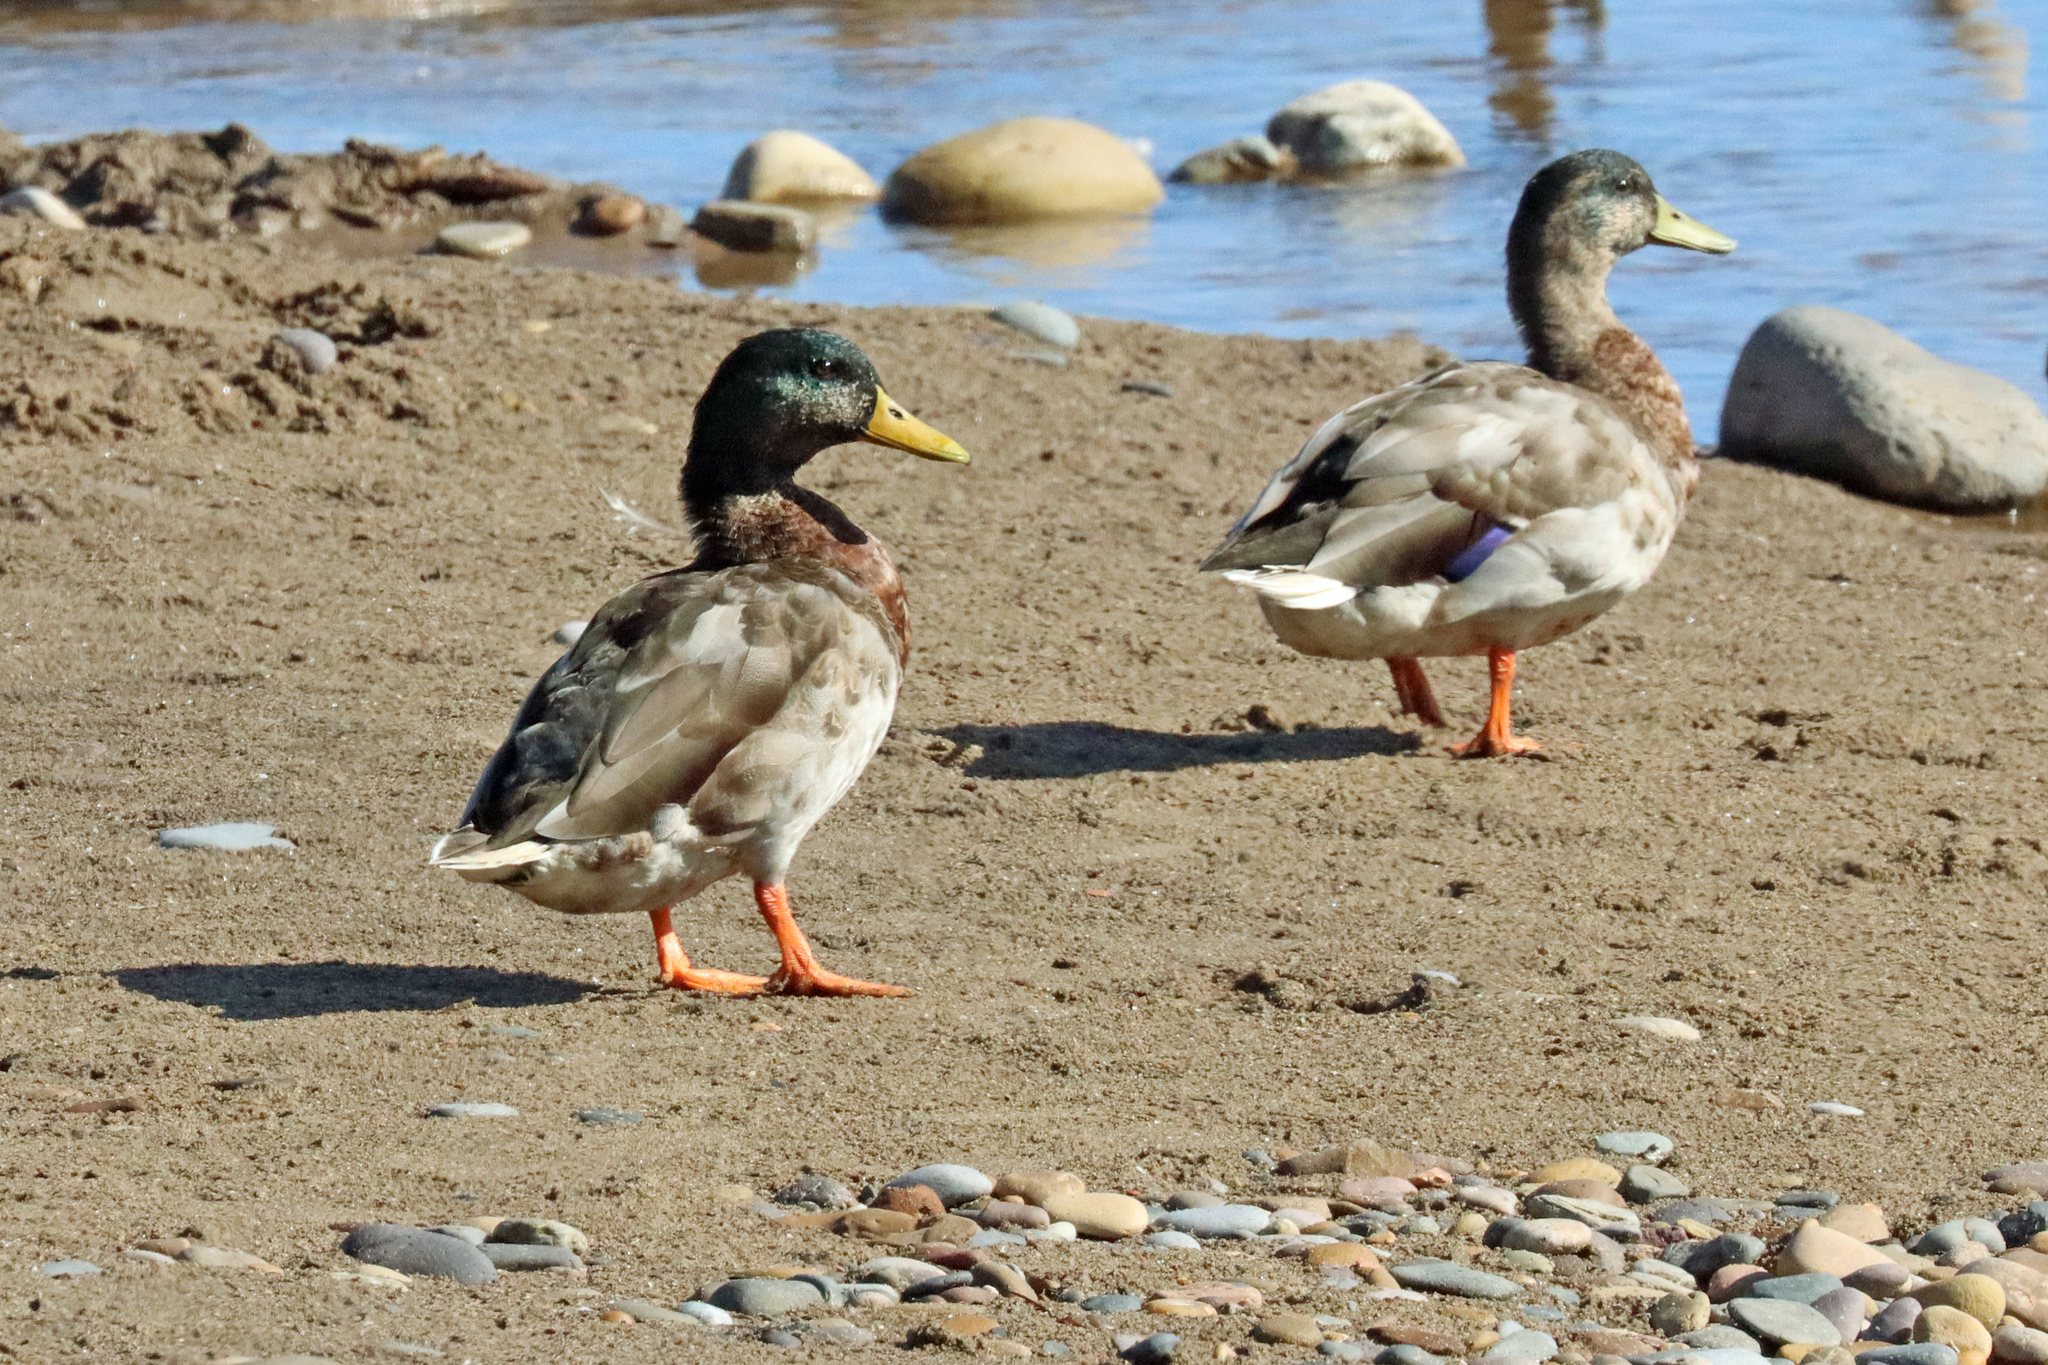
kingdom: Animalia
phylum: Chordata
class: Aves
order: Anseriformes
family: Anatidae
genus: Anas
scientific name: Anas platyrhynchos
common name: Mallard
